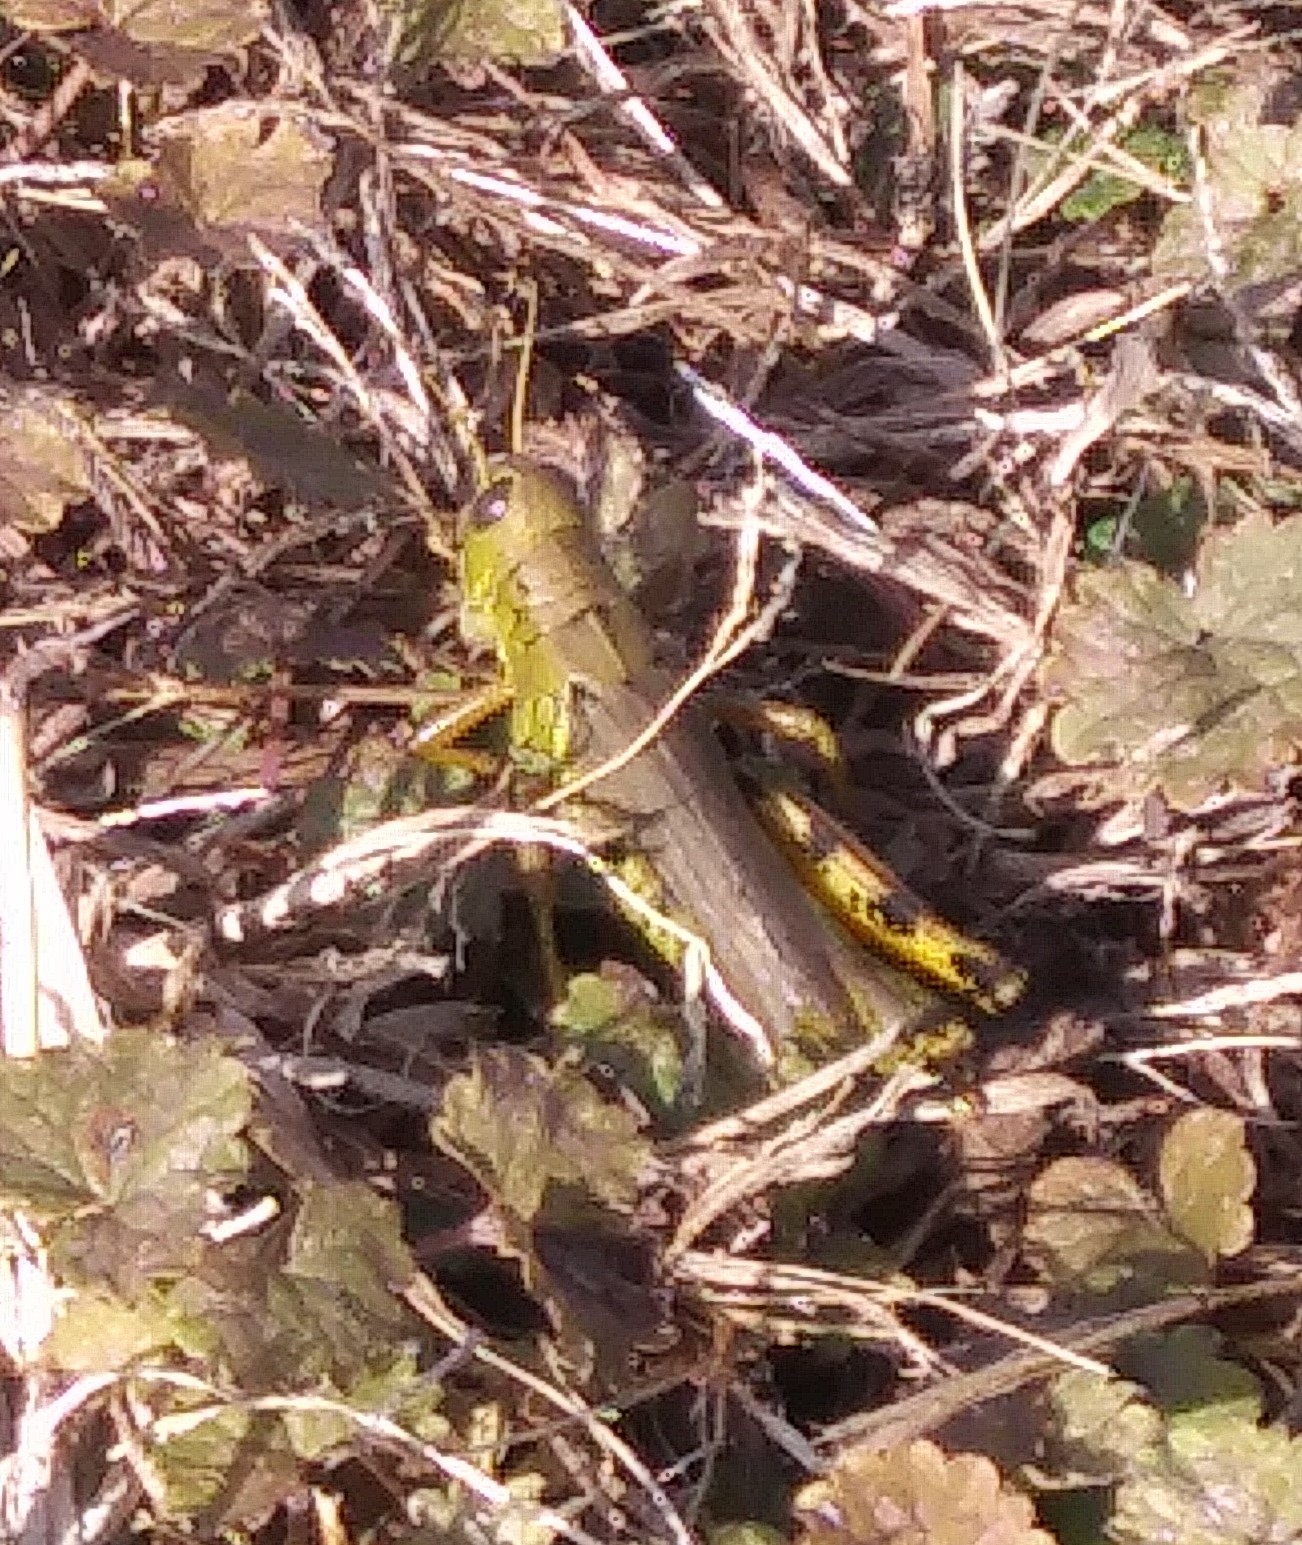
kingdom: Animalia
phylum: Arthropoda
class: Insecta
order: Orthoptera
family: Acrididae
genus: Melanoplus
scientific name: Melanoplus differentialis
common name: Differential grasshopper
